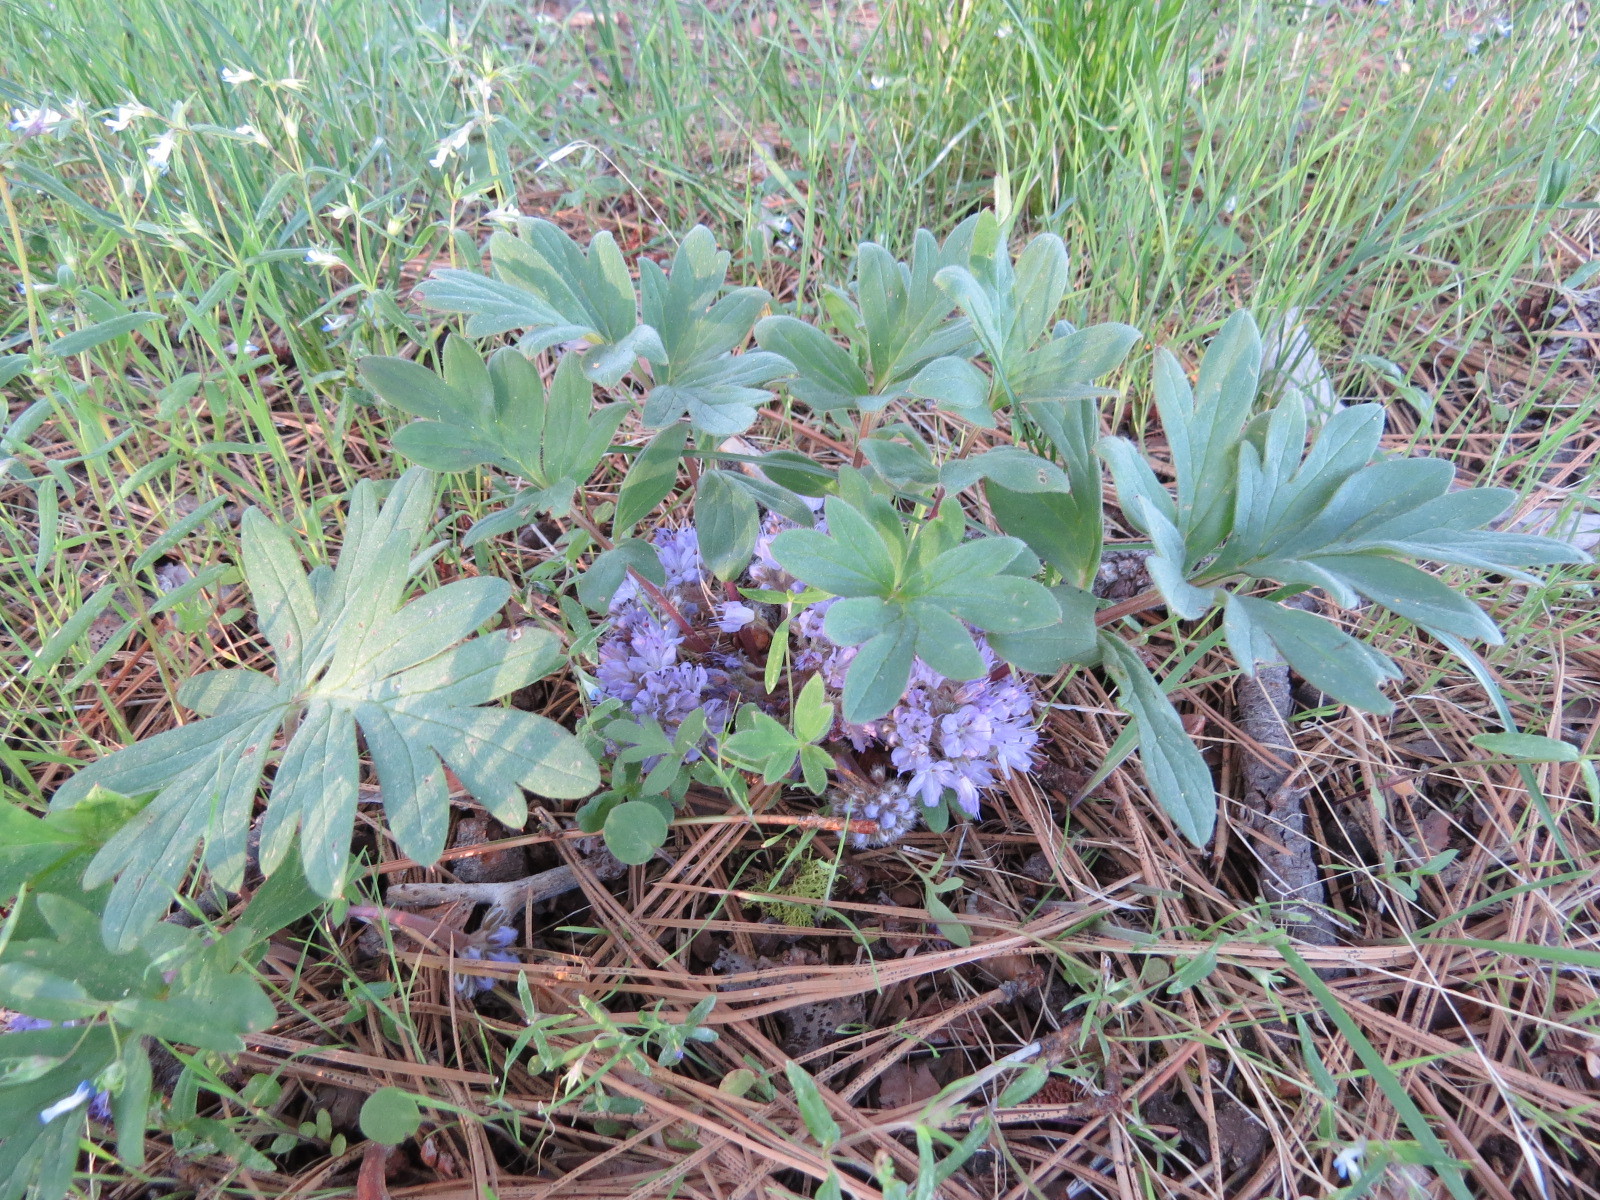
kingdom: Plantae
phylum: Tracheophyta
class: Magnoliopsida
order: Boraginales
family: Hydrophyllaceae
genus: Hydrophyllum
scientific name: Hydrophyllum alpestre
